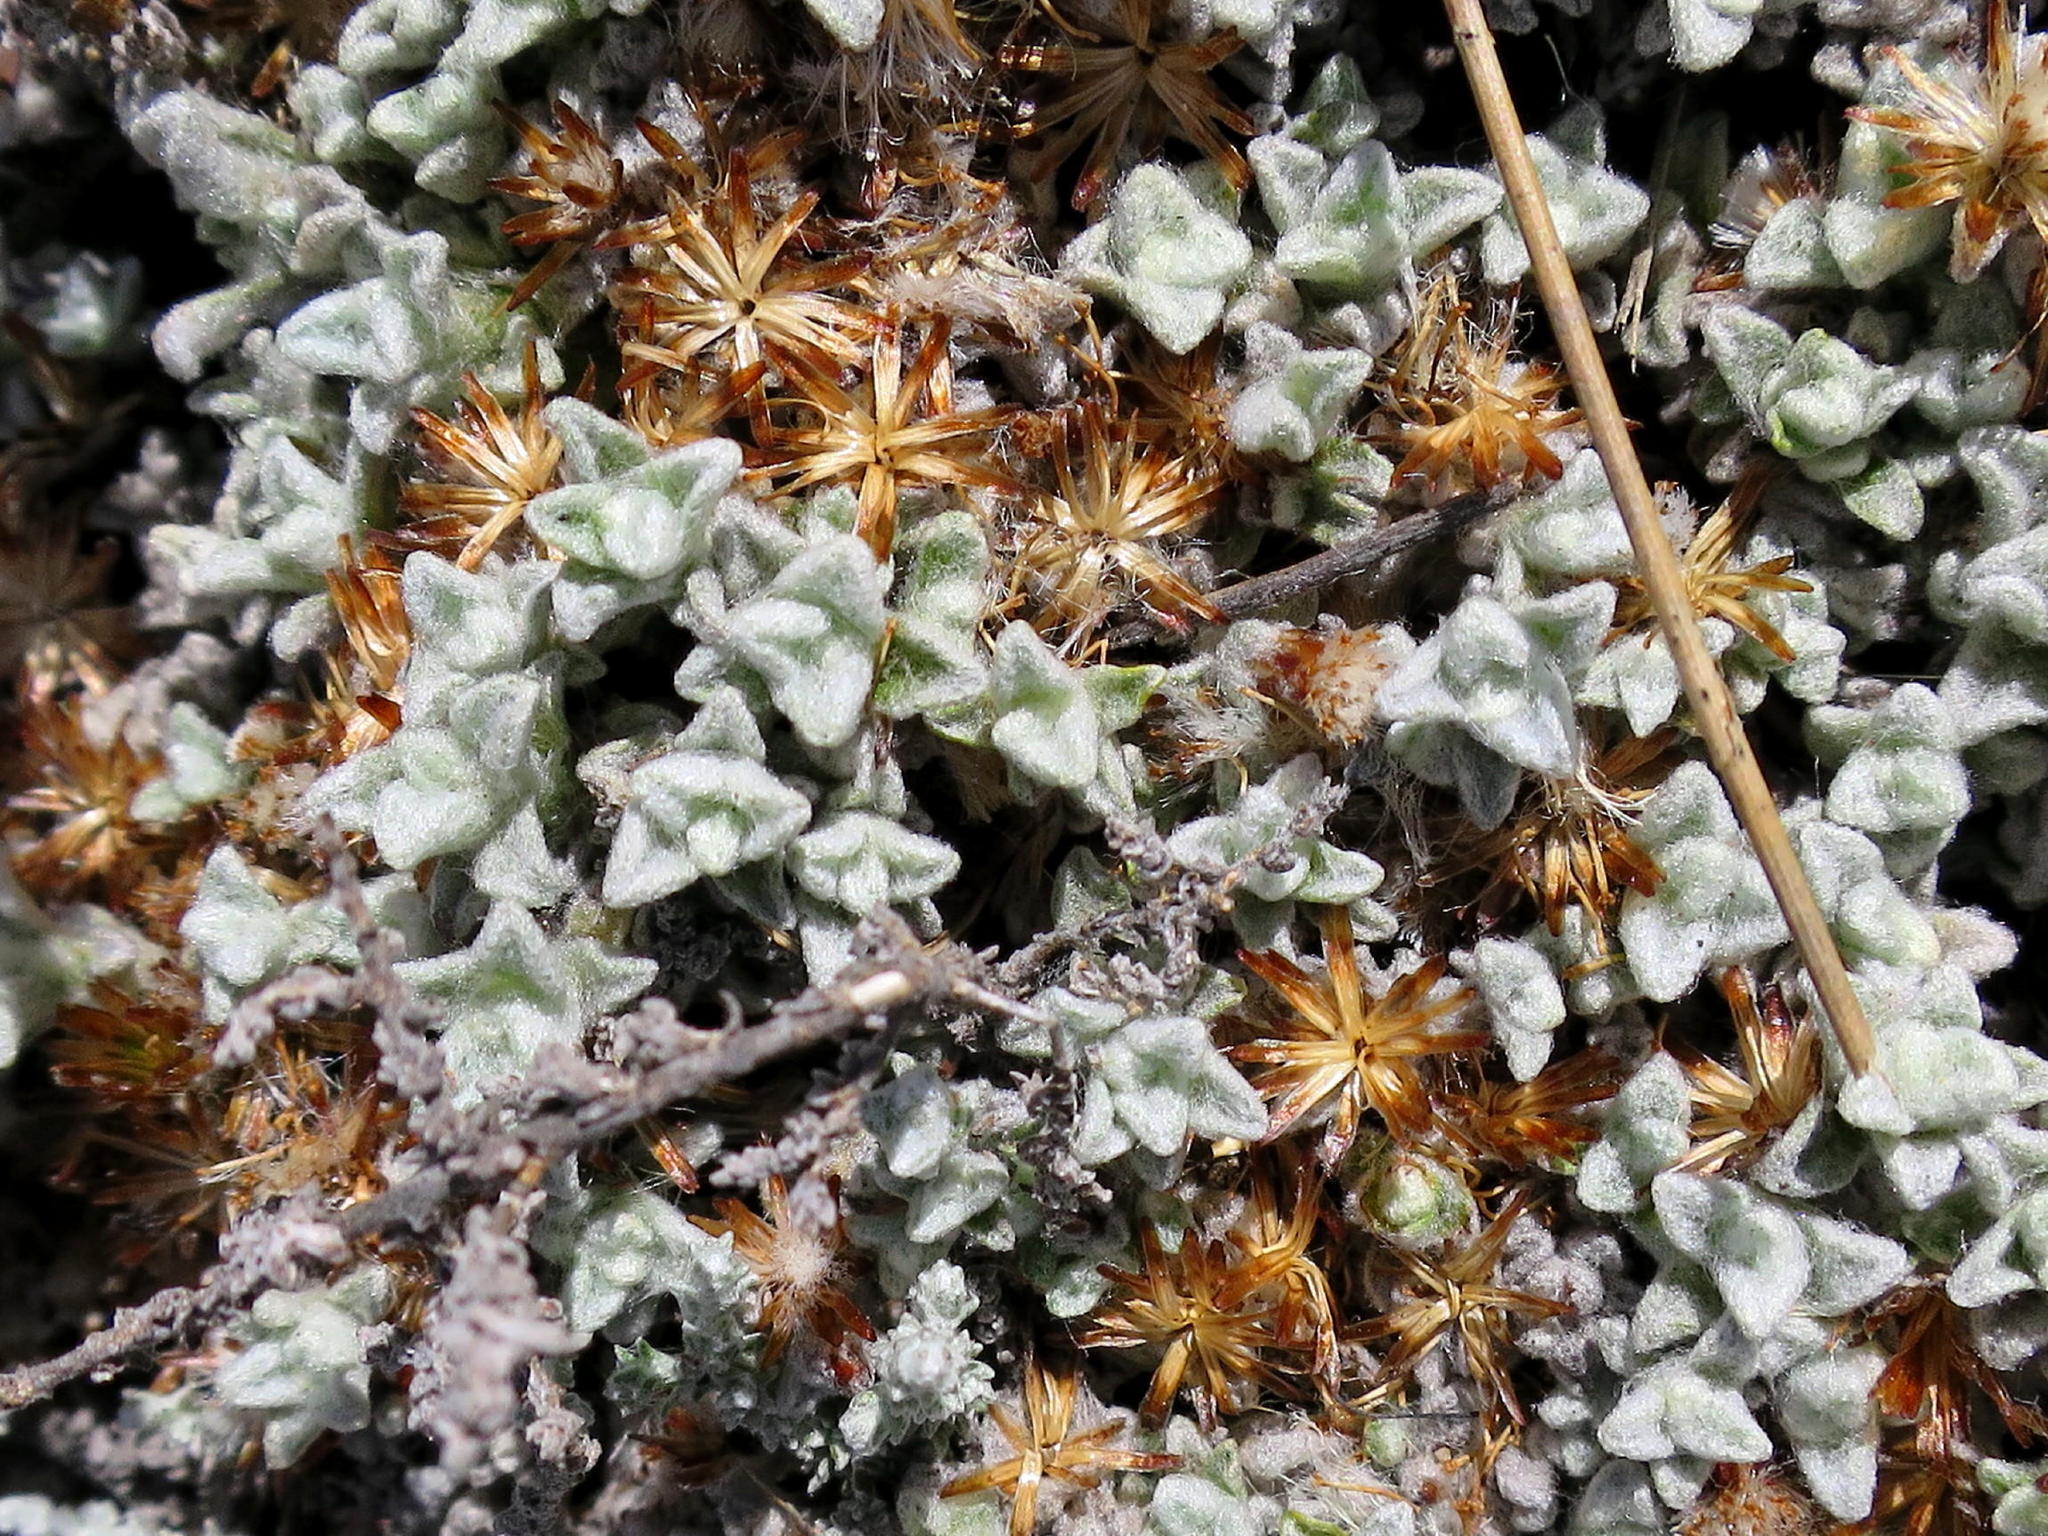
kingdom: Plantae
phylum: Tracheophyta
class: Magnoliopsida
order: Asterales
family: Asteraceae
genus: Helichrysum
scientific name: Helichrysum saxicola
